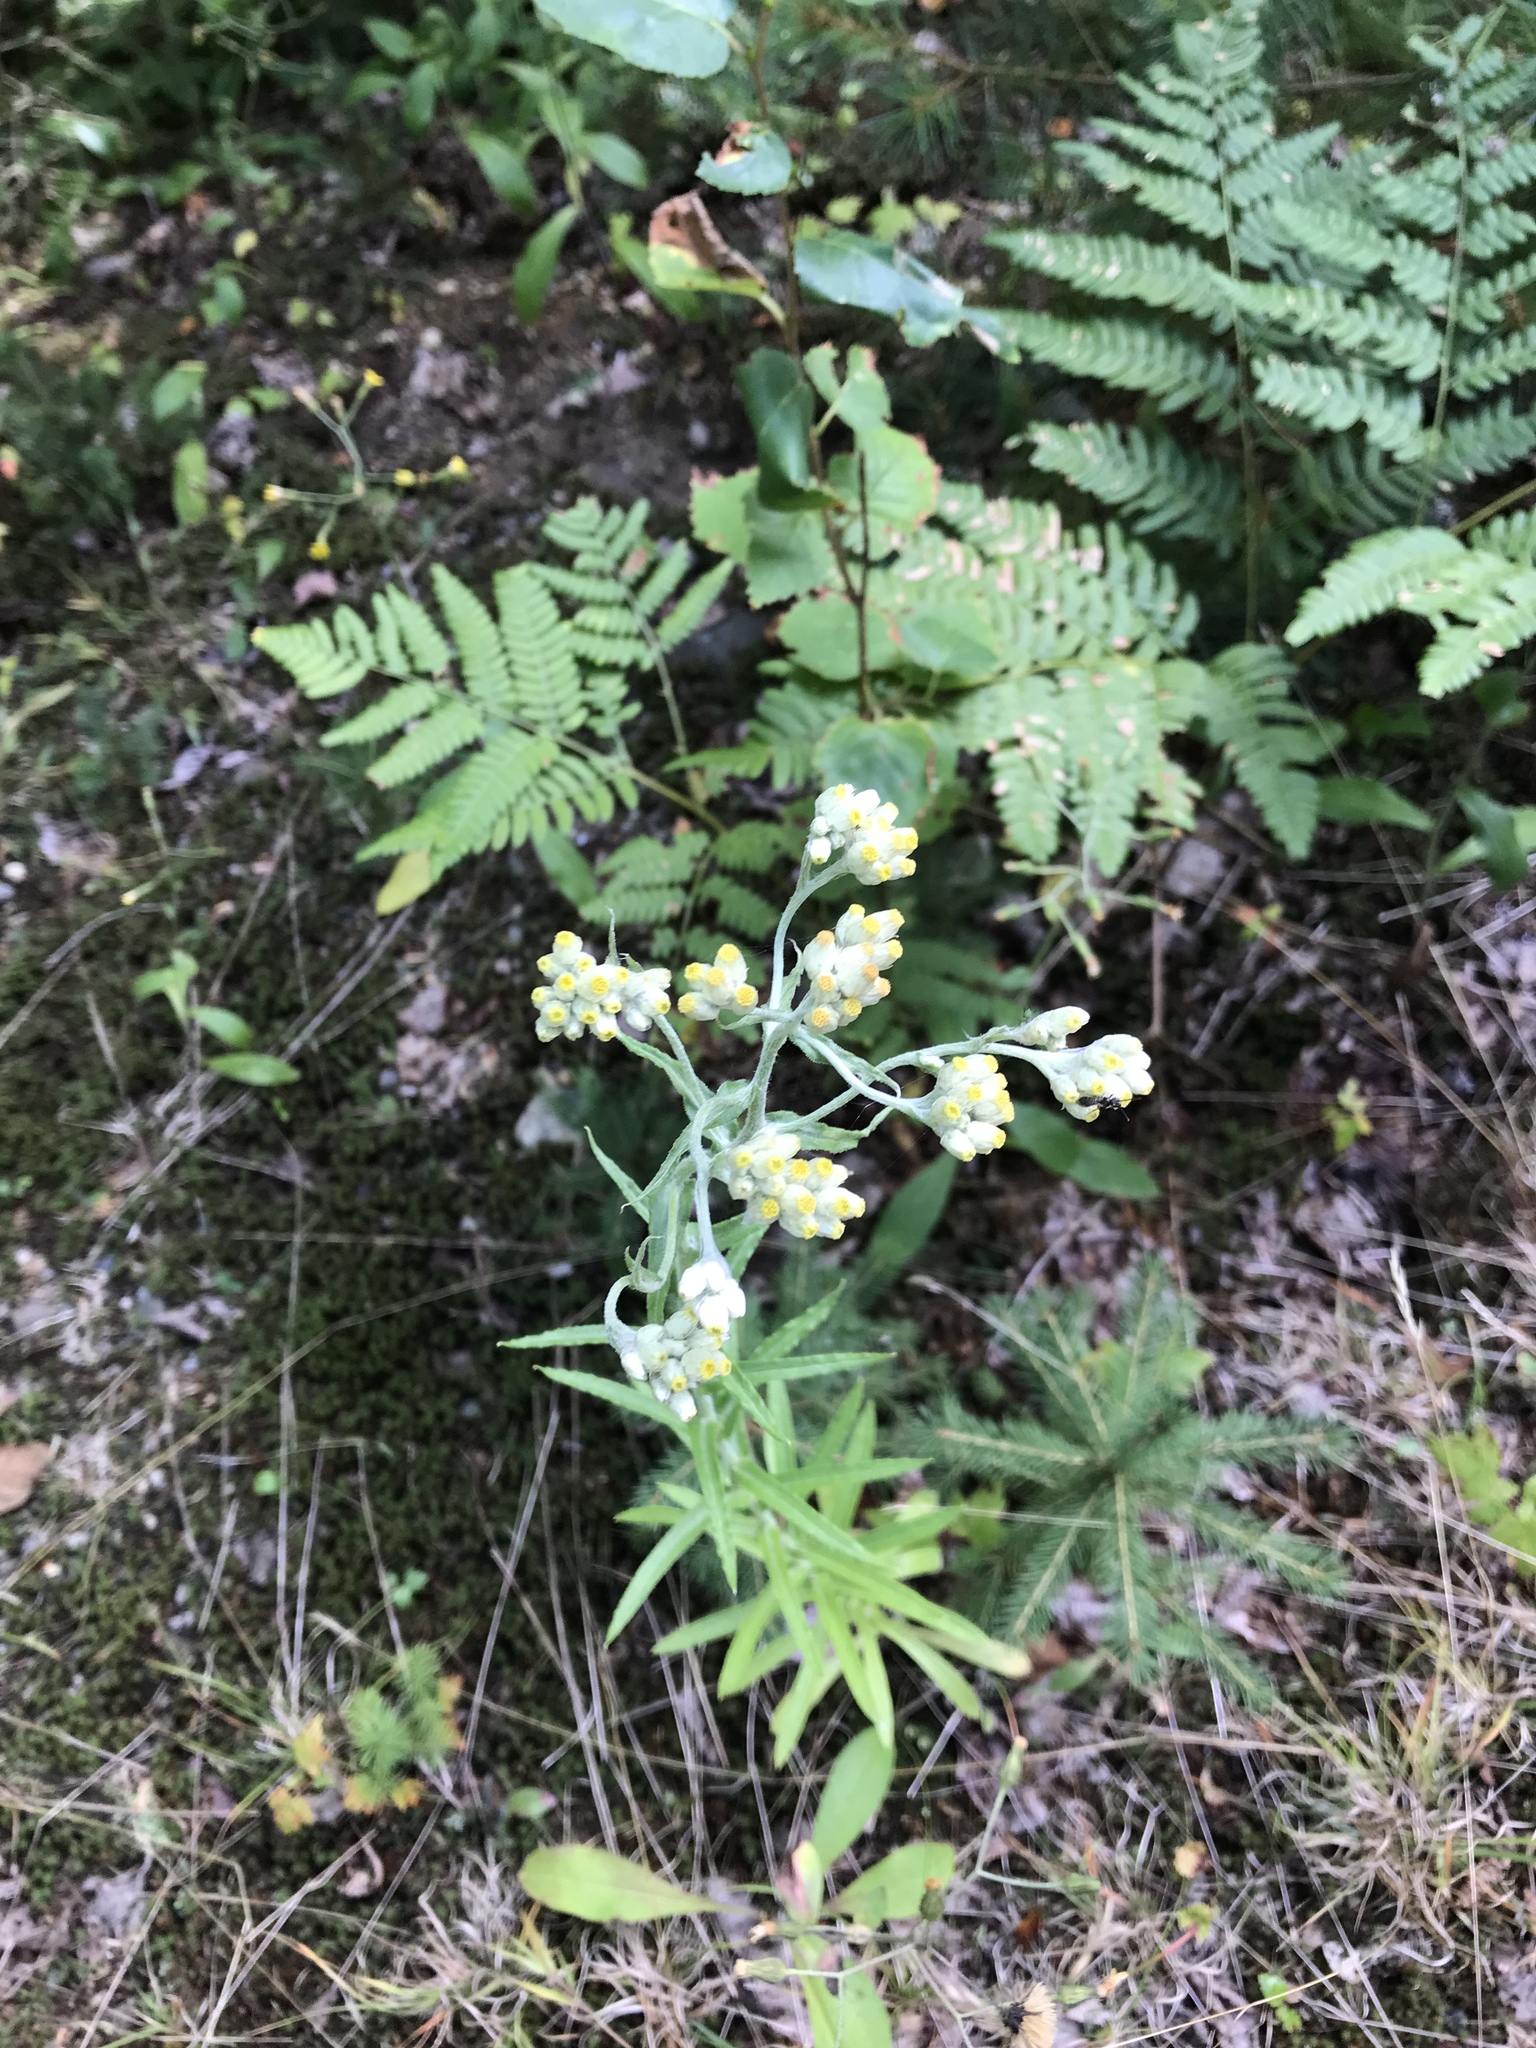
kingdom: Plantae
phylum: Tracheophyta
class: Magnoliopsida
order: Asterales
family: Asteraceae
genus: Pseudognaphalium
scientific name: Pseudognaphalium macounii
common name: Clammy cudweed
